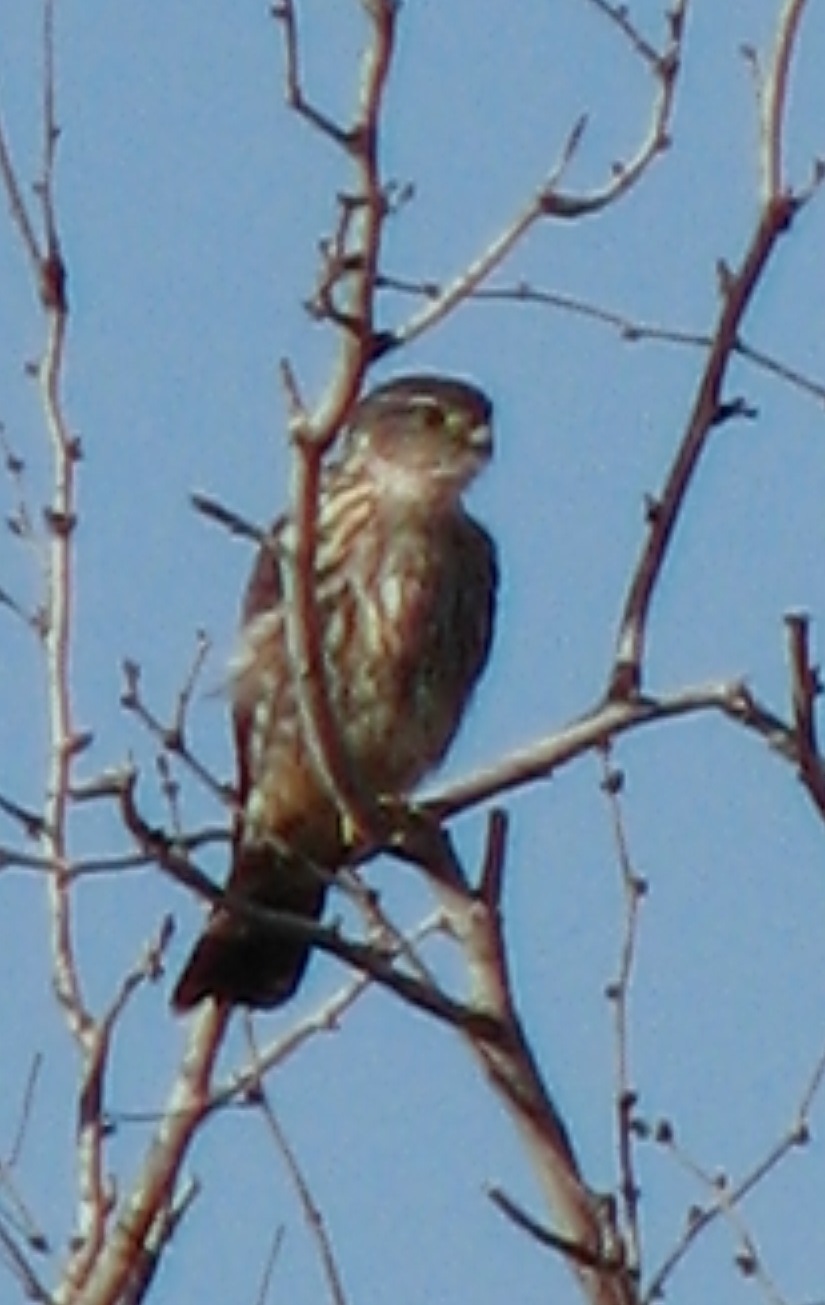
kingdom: Animalia
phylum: Chordata
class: Aves
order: Falconiformes
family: Falconidae
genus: Falco
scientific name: Falco columbarius
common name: Merlin
